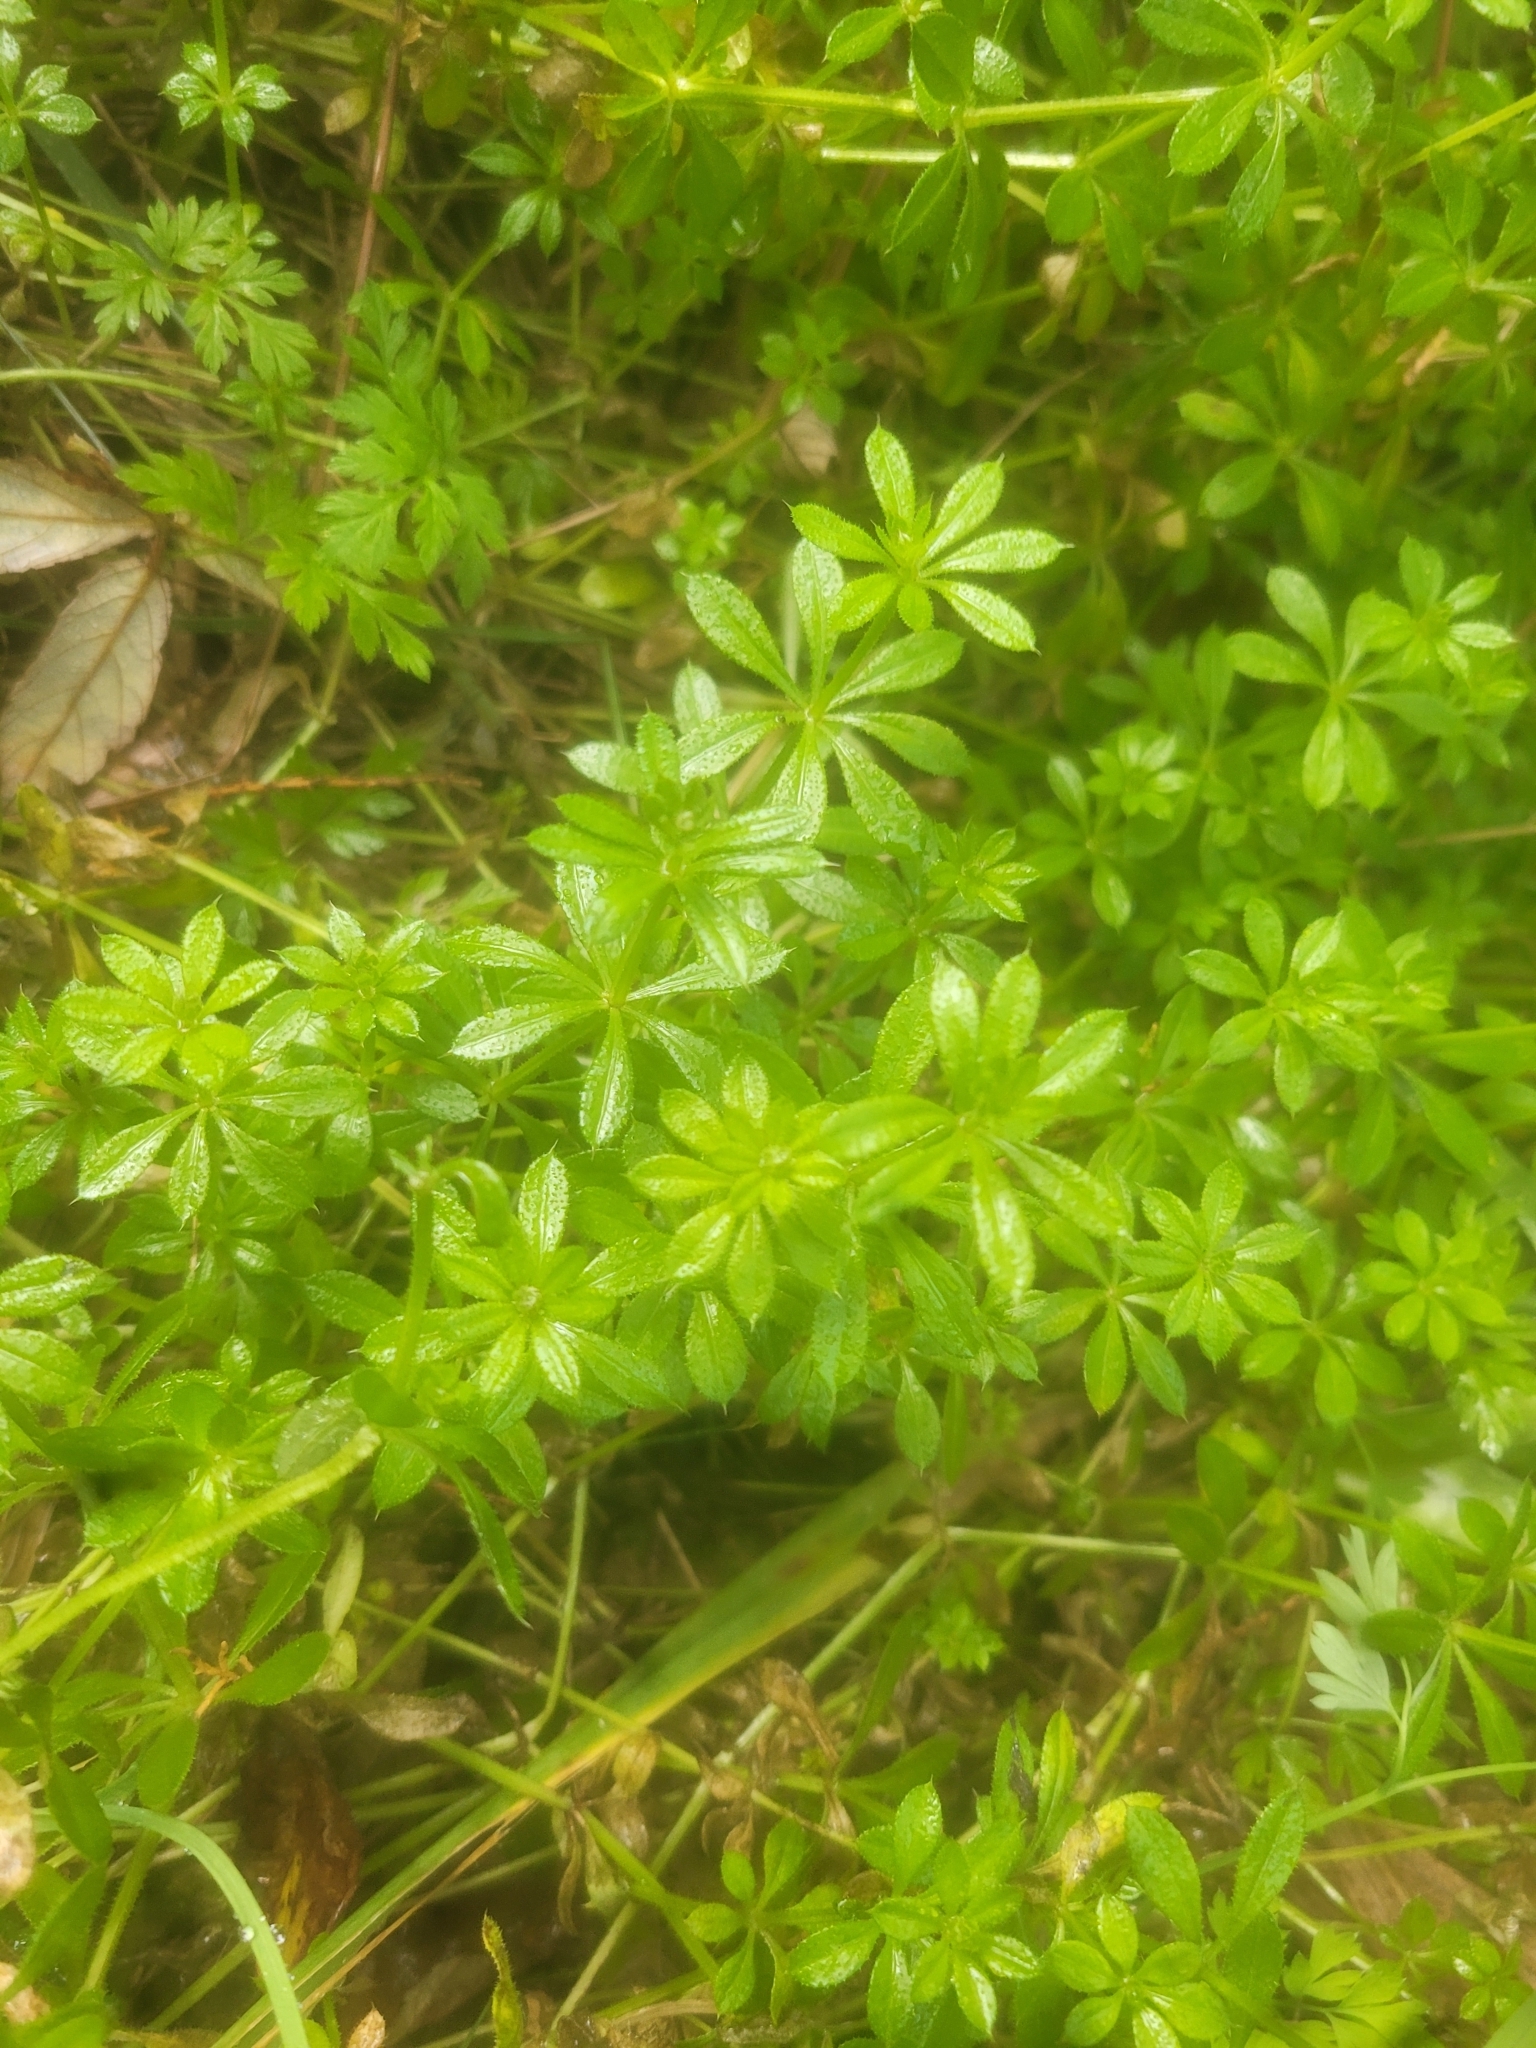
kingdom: Plantae
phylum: Tracheophyta
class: Magnoliopsida
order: Gentianales
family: Rubiaceae
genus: Galium
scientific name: Galium aparine
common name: Cleavers
